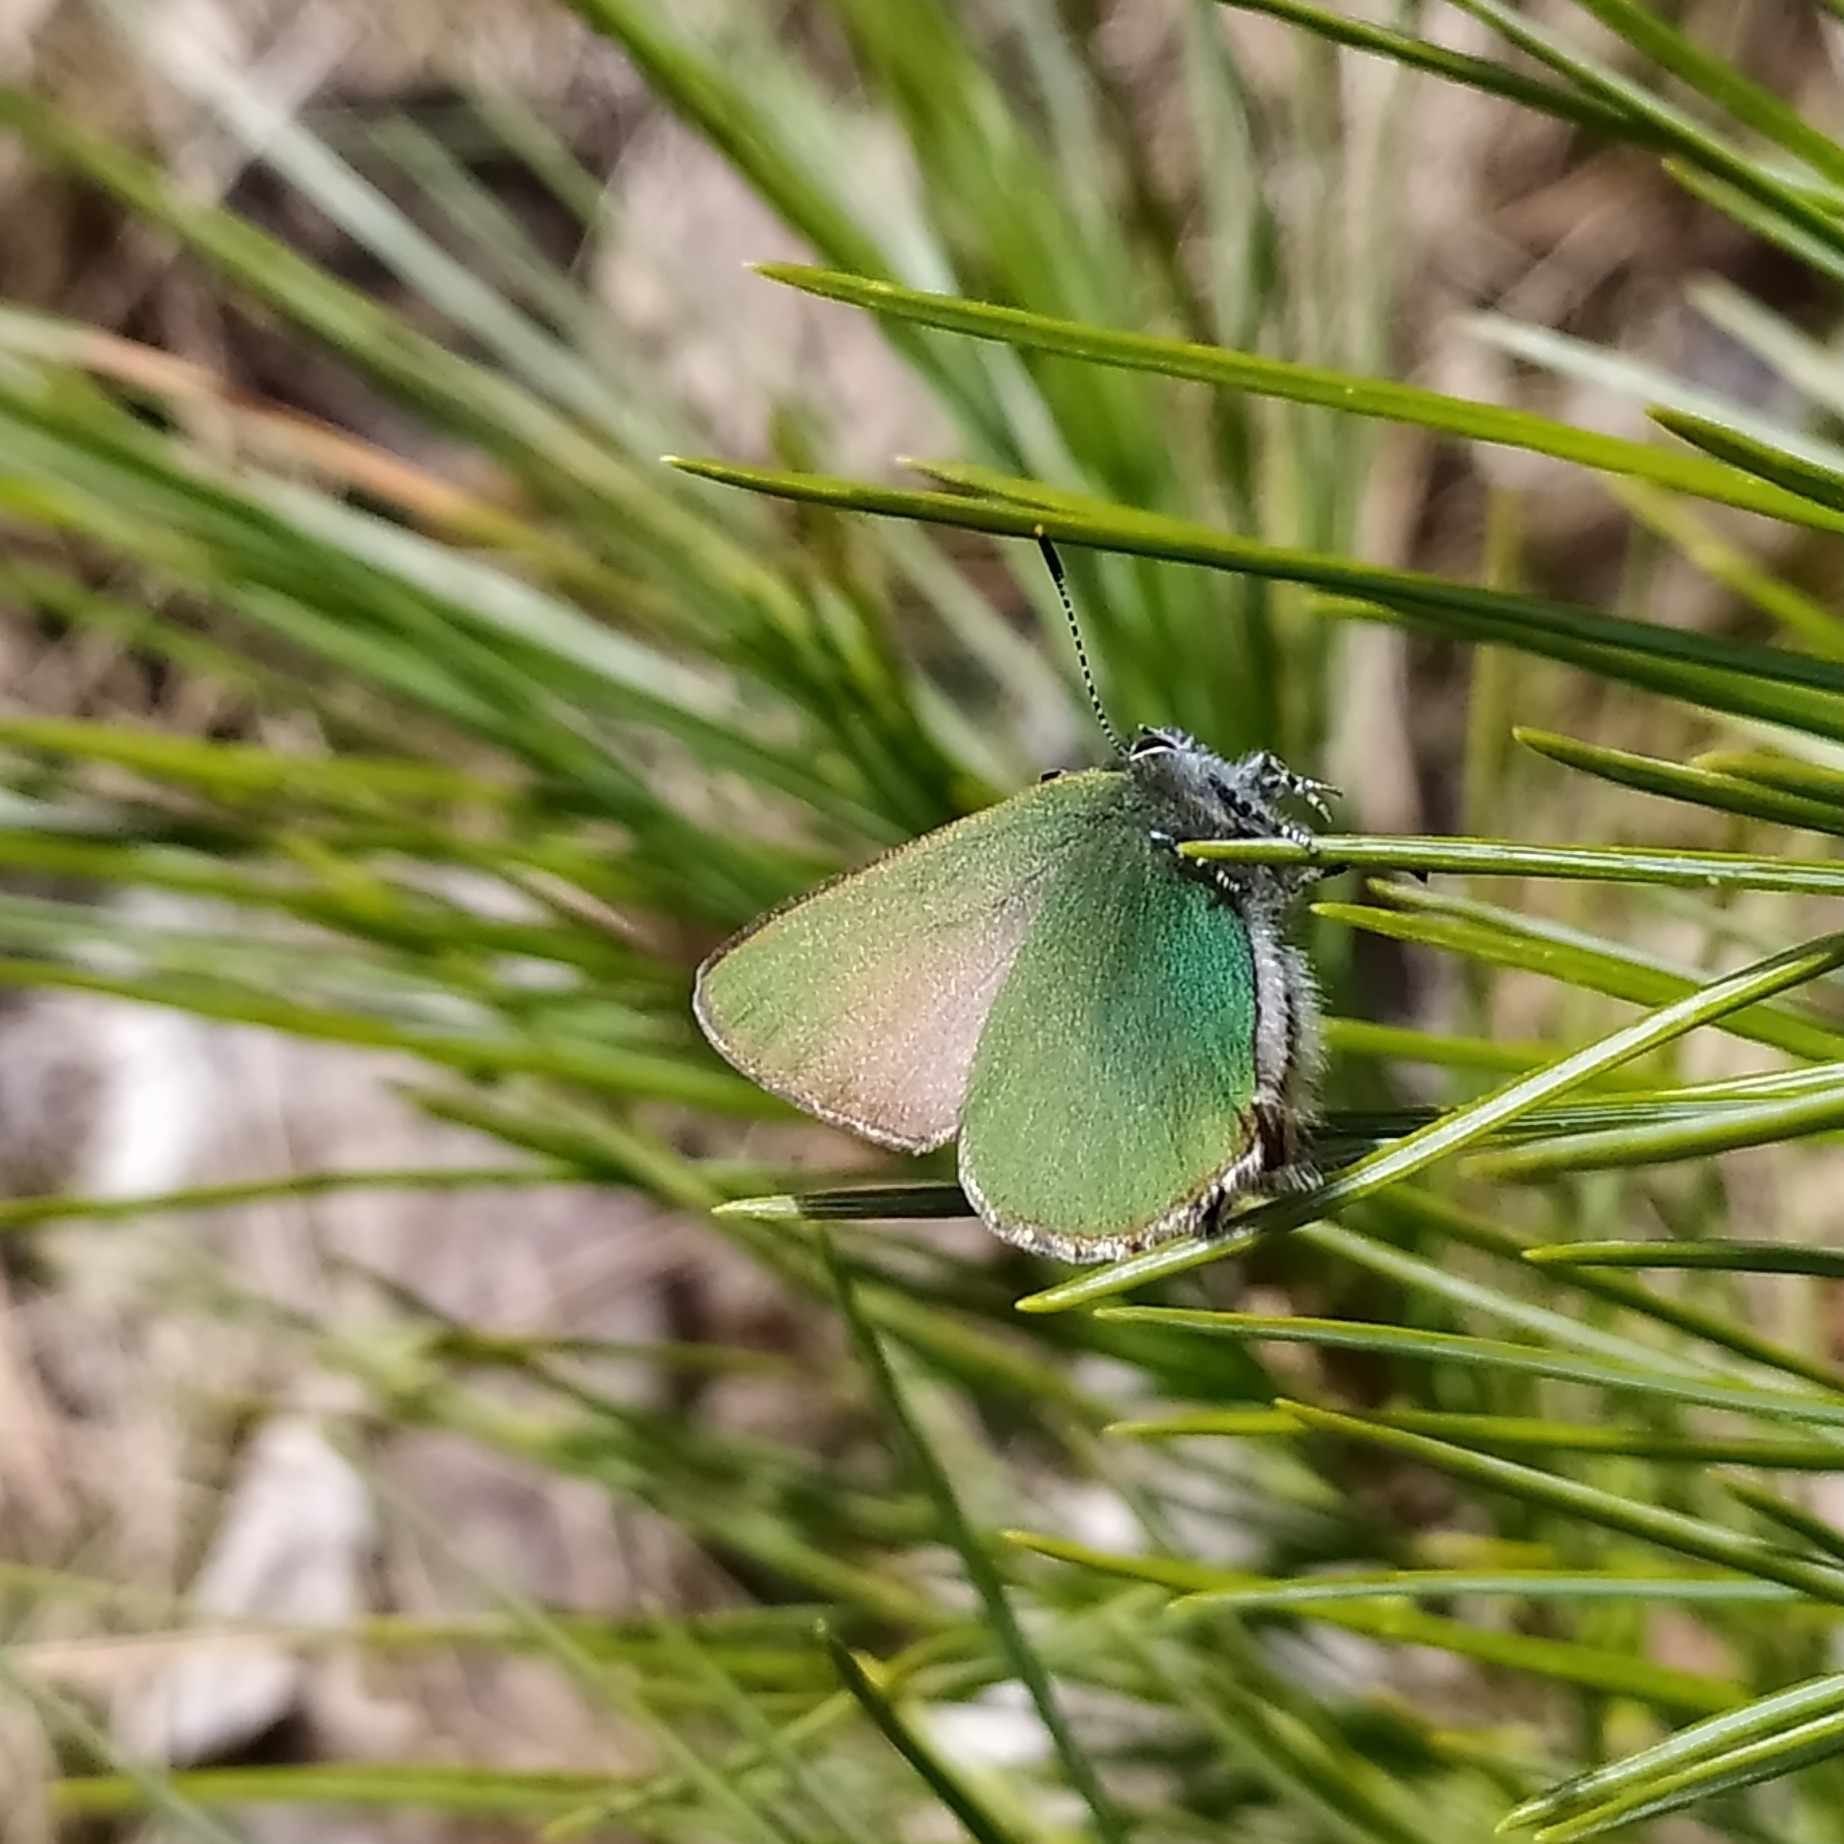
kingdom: Animalia
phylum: Arthropoda
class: Insecta
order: Lepidoptera
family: Lycaenidae
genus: Callophrys
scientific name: Callophrys rubi
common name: Green hairstreak
